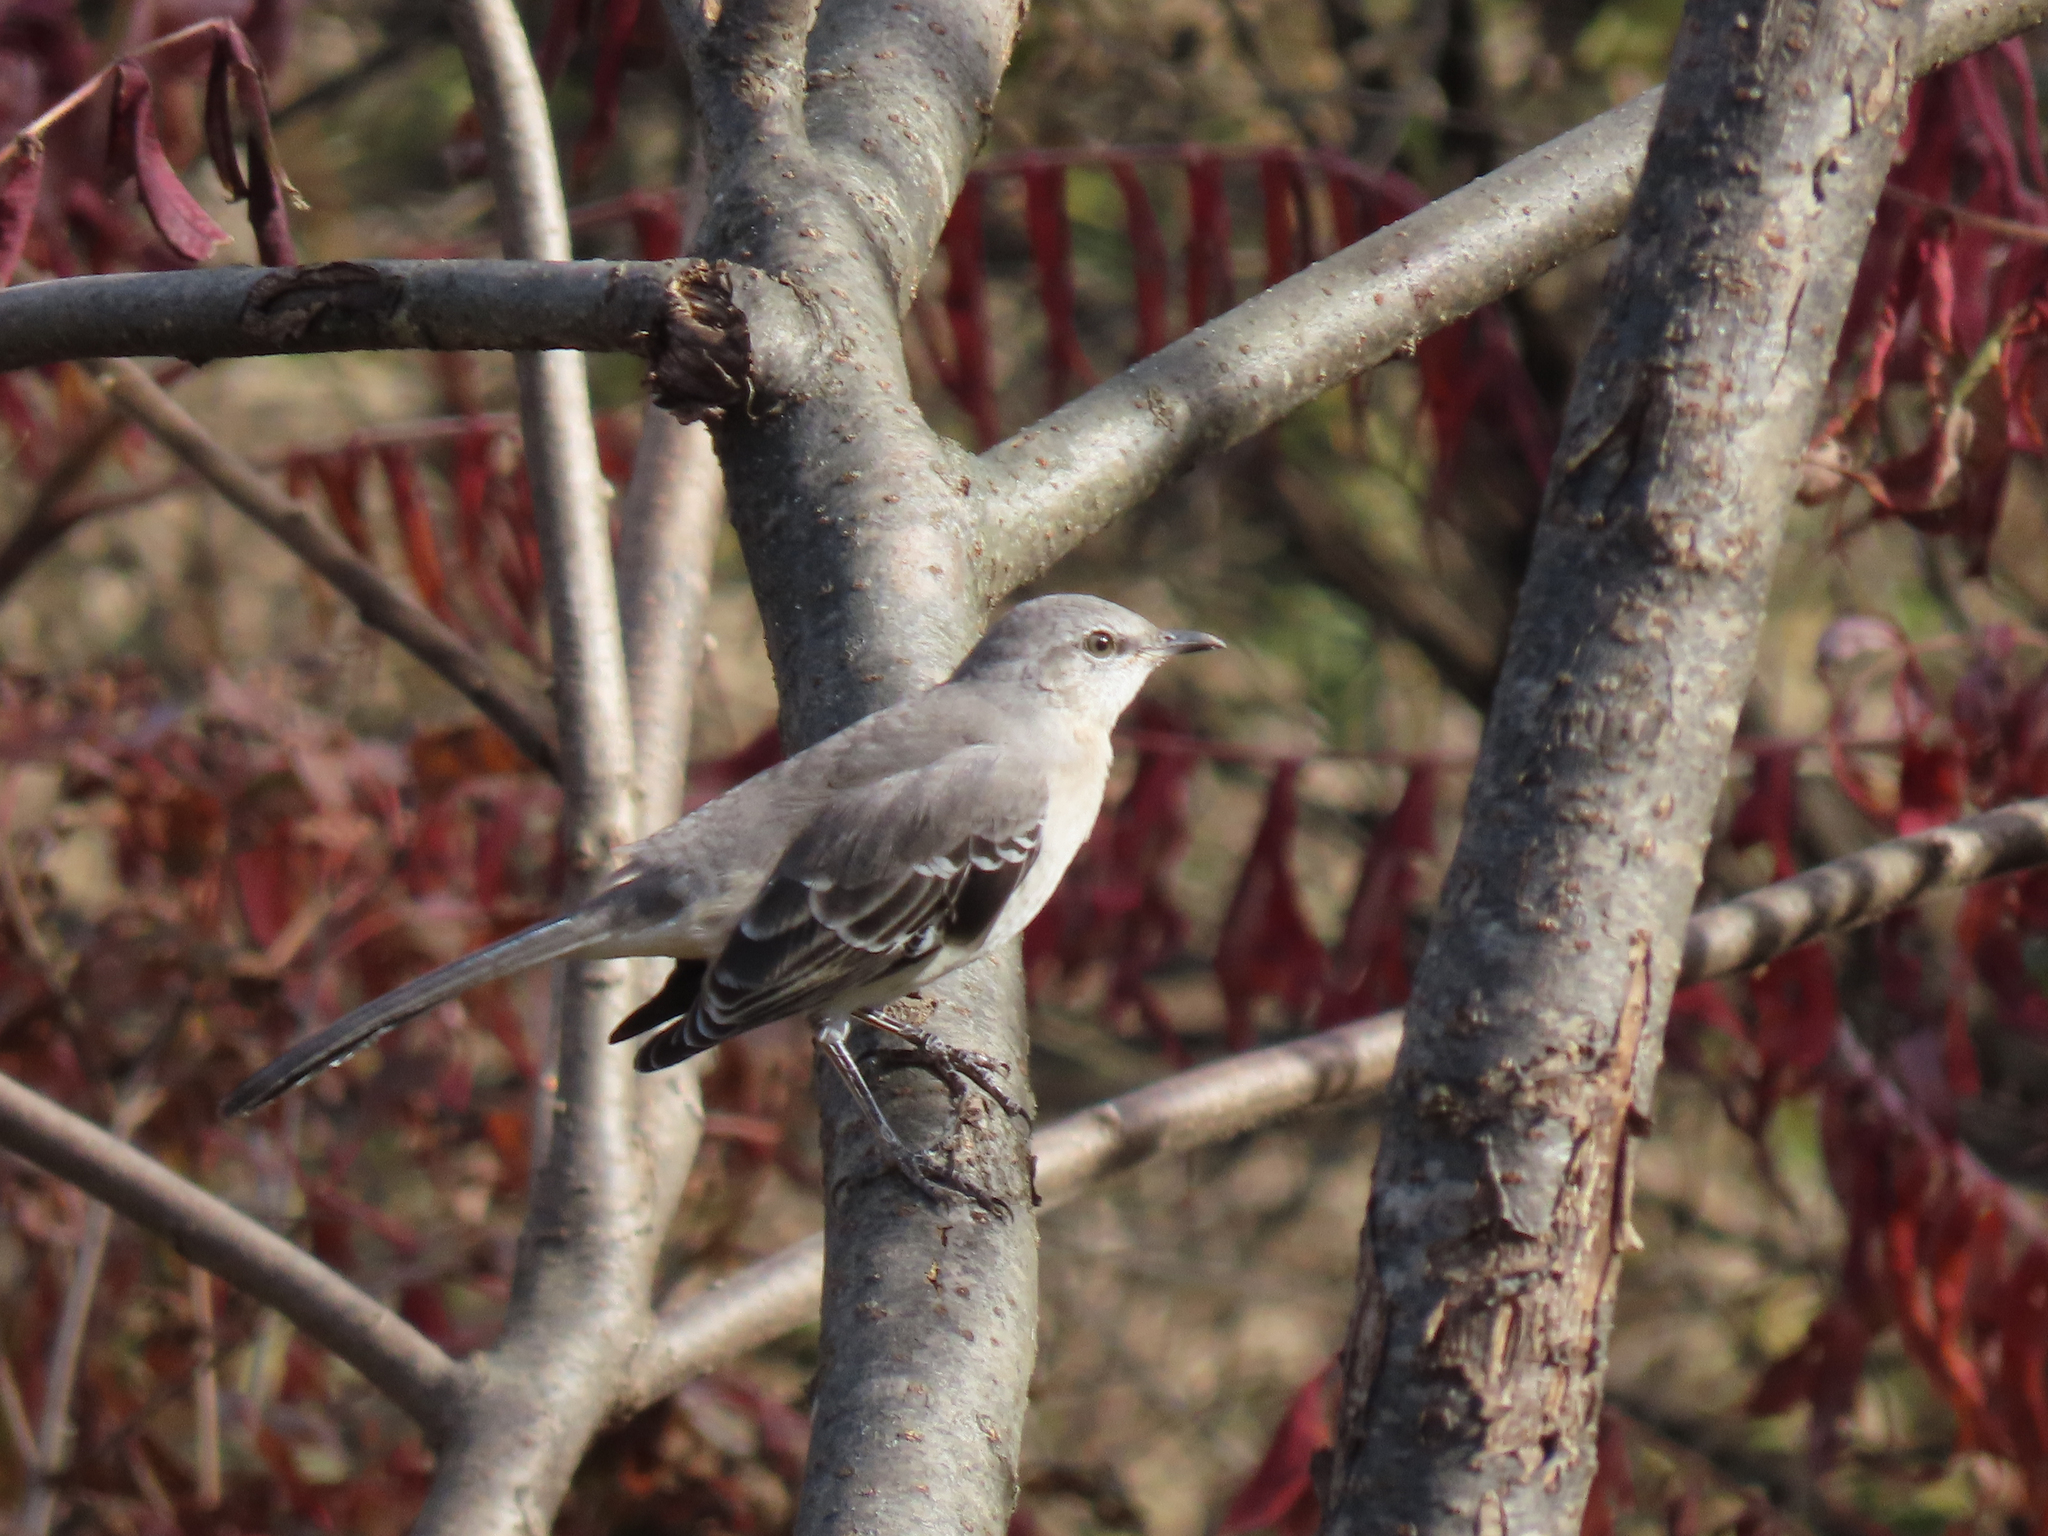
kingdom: Animalia
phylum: Chordata
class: Aves
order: Passeriformes
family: Mimidae
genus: Mimus
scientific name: Mimus polyglottos
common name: Northern mockingbird
